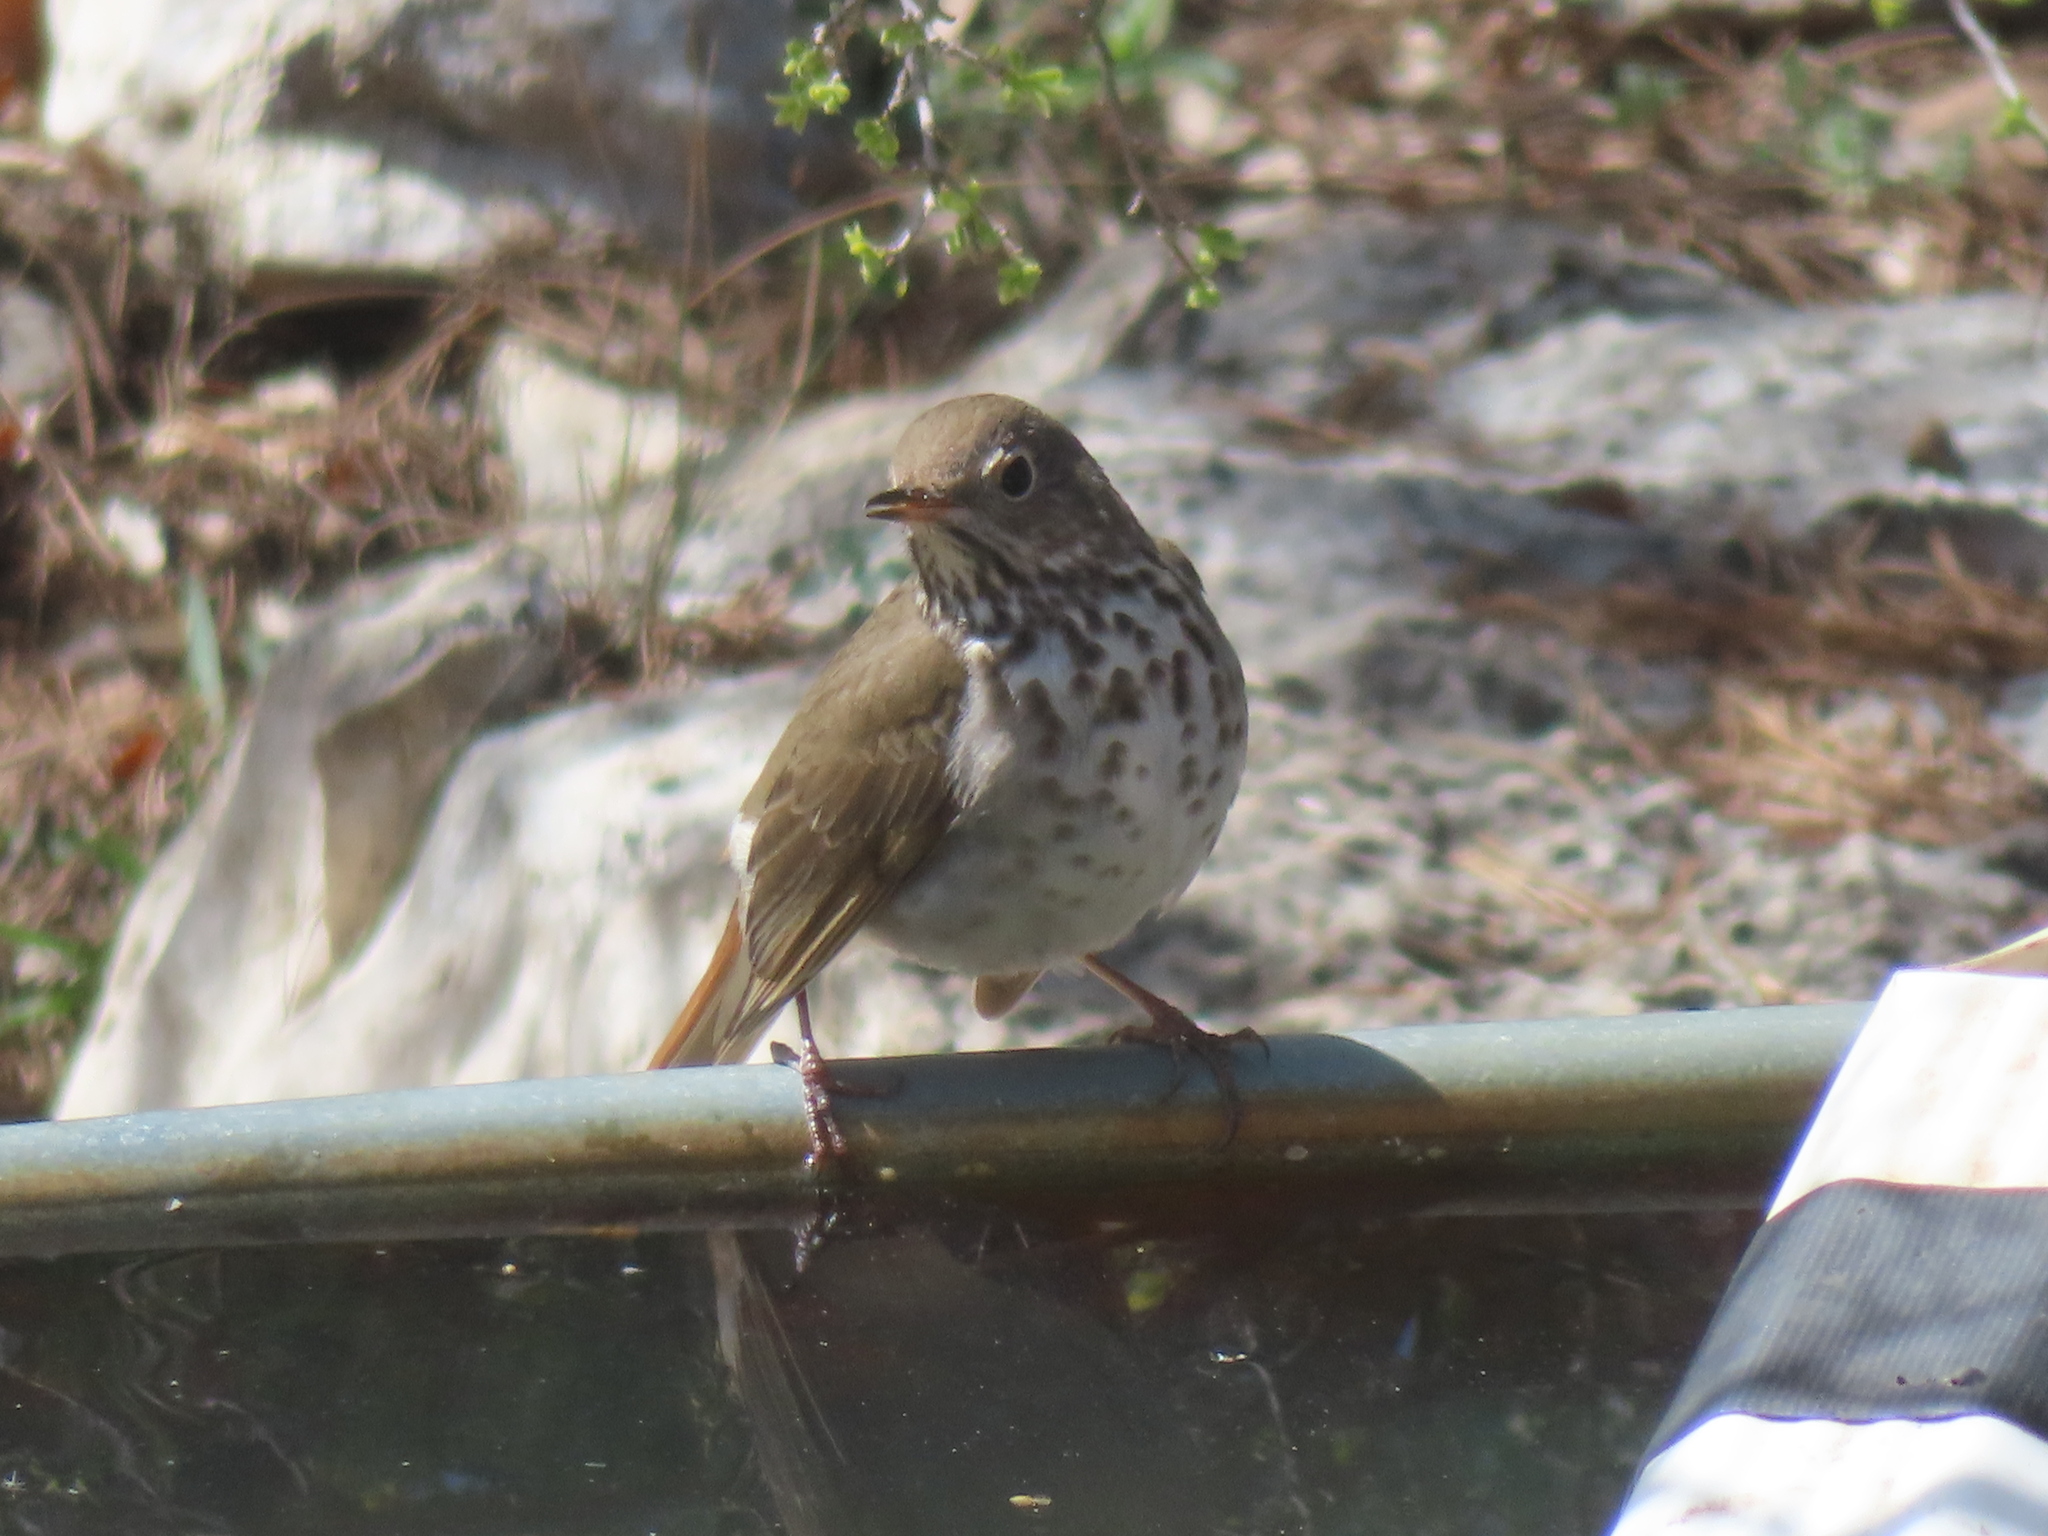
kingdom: Animalia
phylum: Chordata
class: Aves
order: Passeriformes
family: Turdidae
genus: Catharus
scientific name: Catharus guttatus
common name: Hermit thrush
